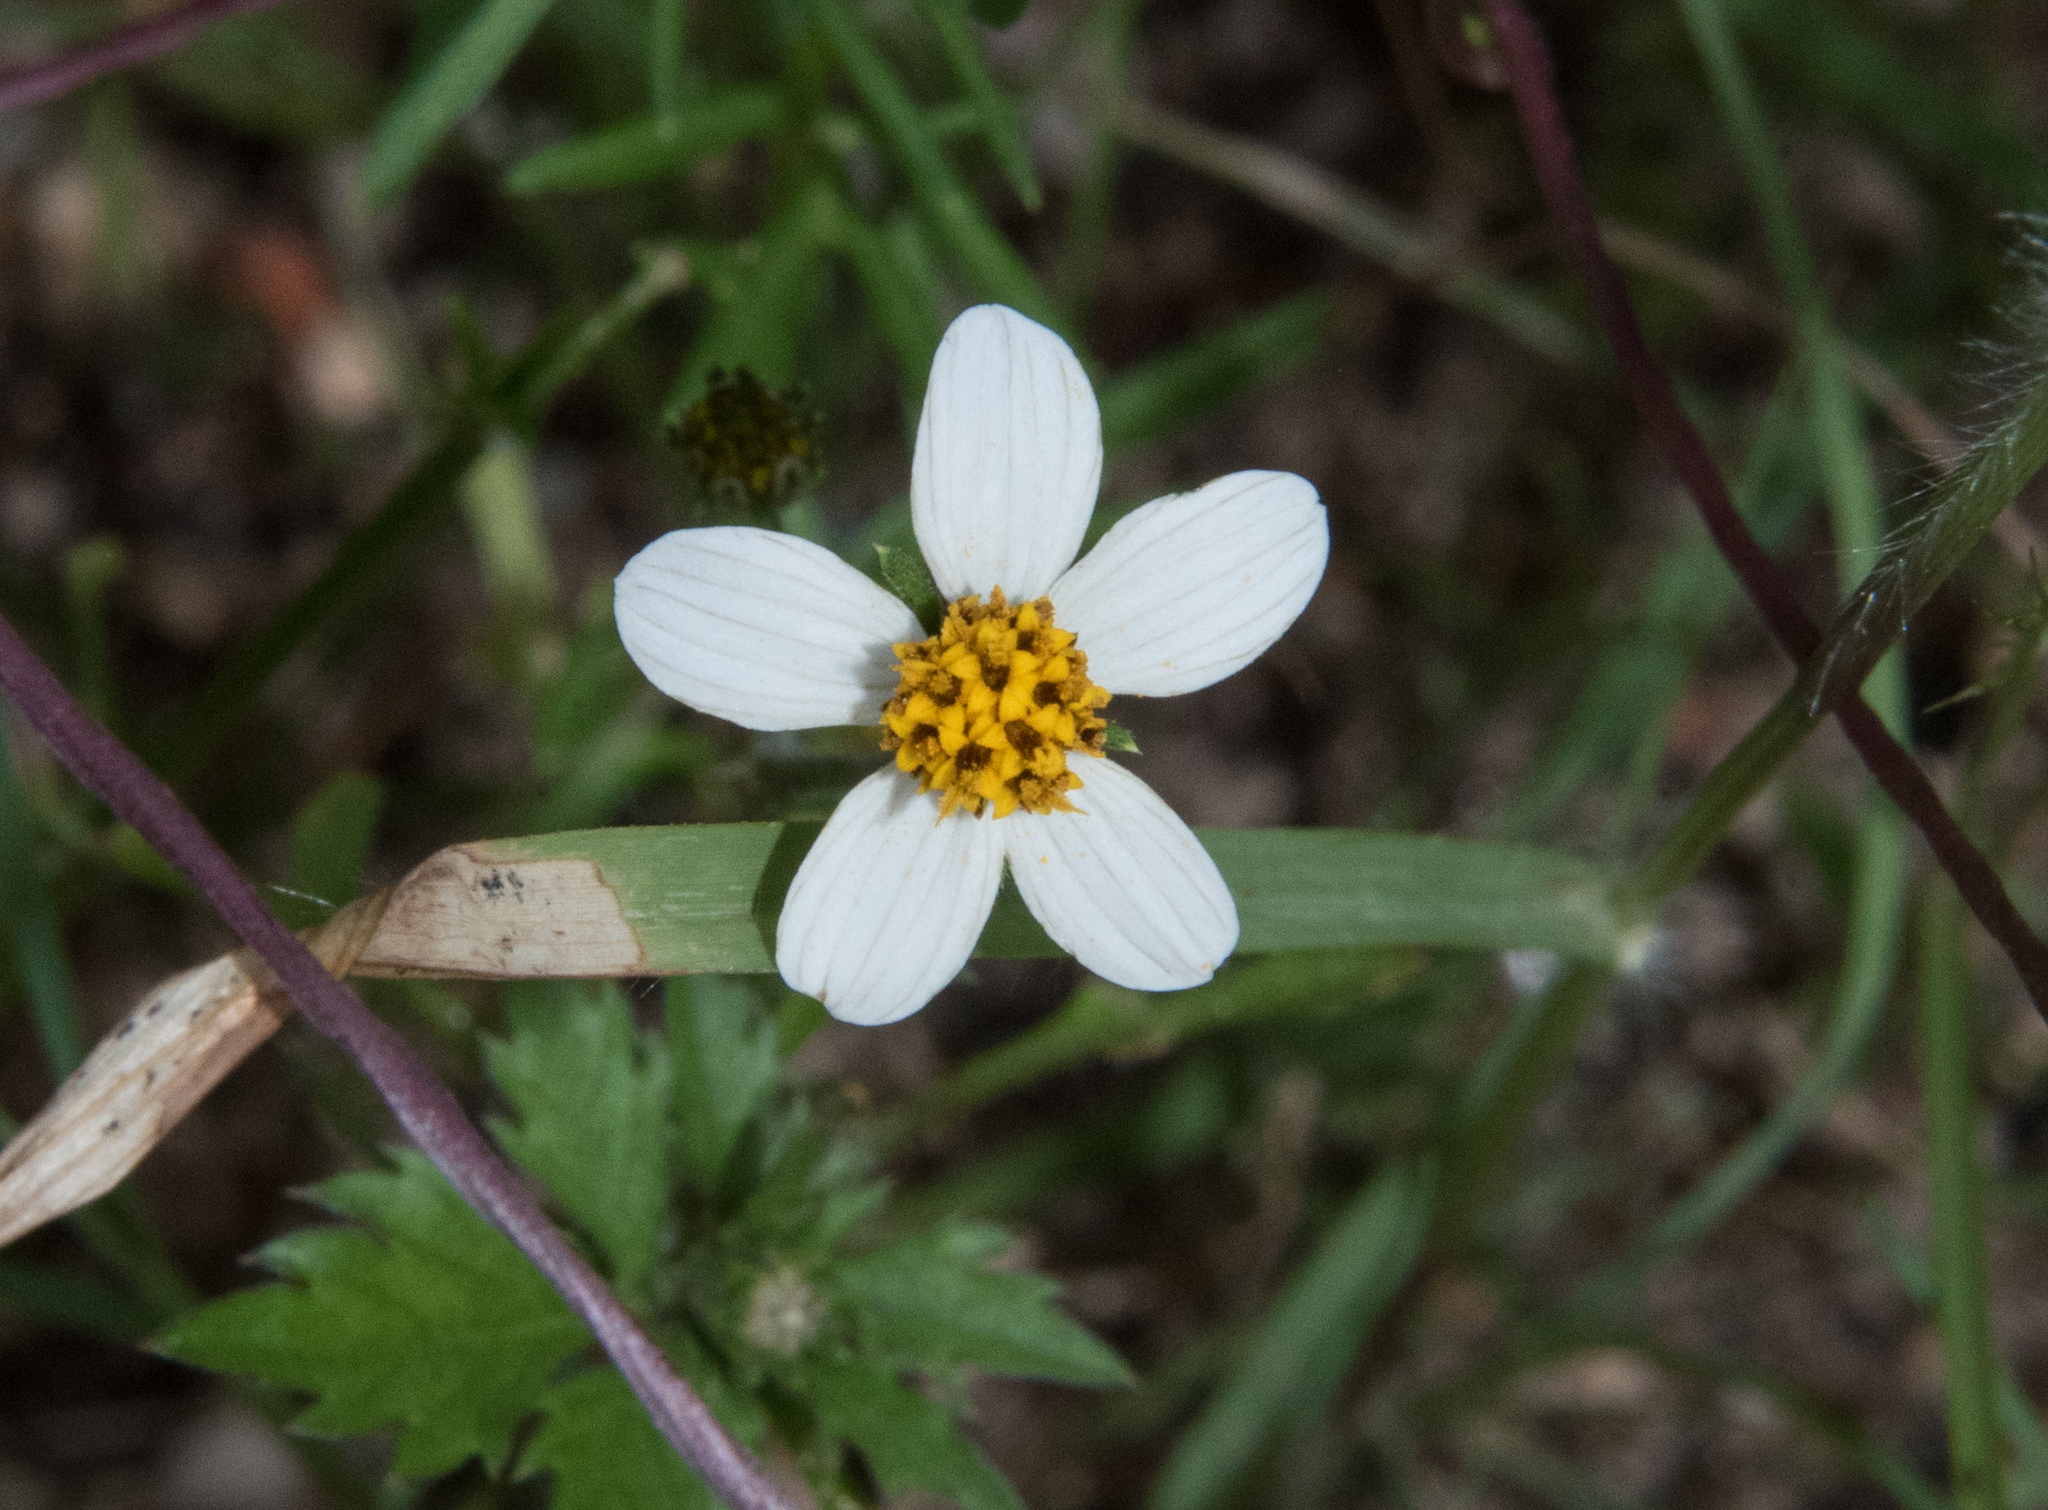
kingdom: Plantae
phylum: Tracheophyta
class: Magnoliopsida
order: Asterales
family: Asteraceae
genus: Bidens
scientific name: Bidens bigelovii
